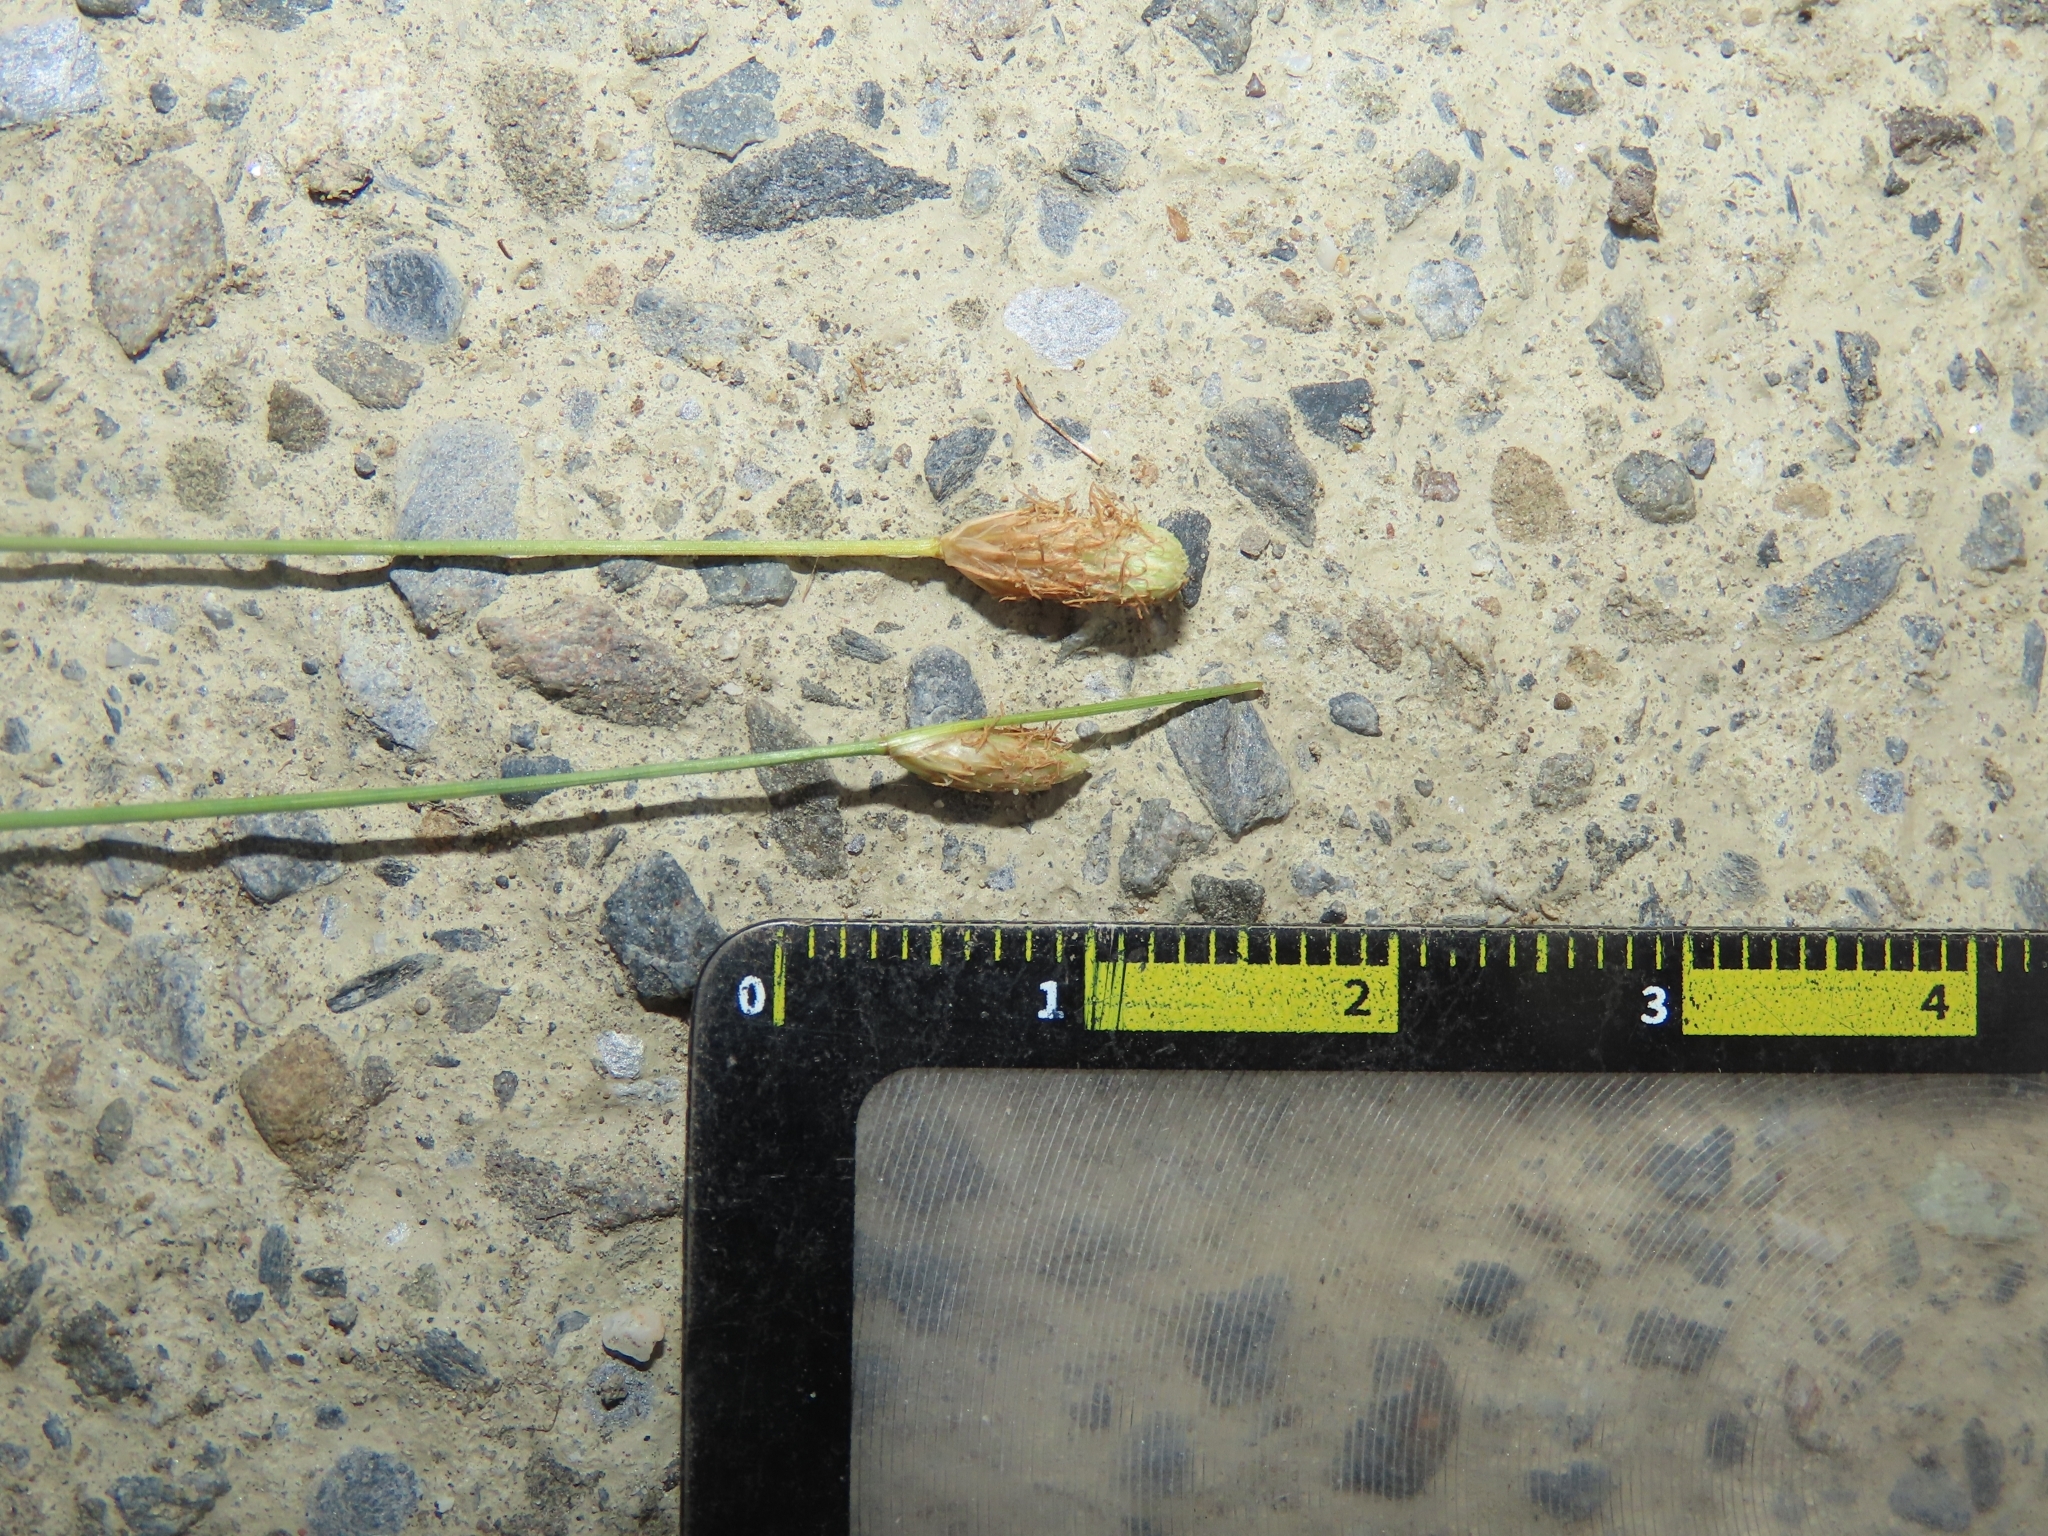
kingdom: Plantae
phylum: Tracheophyta
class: Liliopsida
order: Poales
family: Cyperaceae
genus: Fimbristylis
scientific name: Fimbristylis polytrichoides
